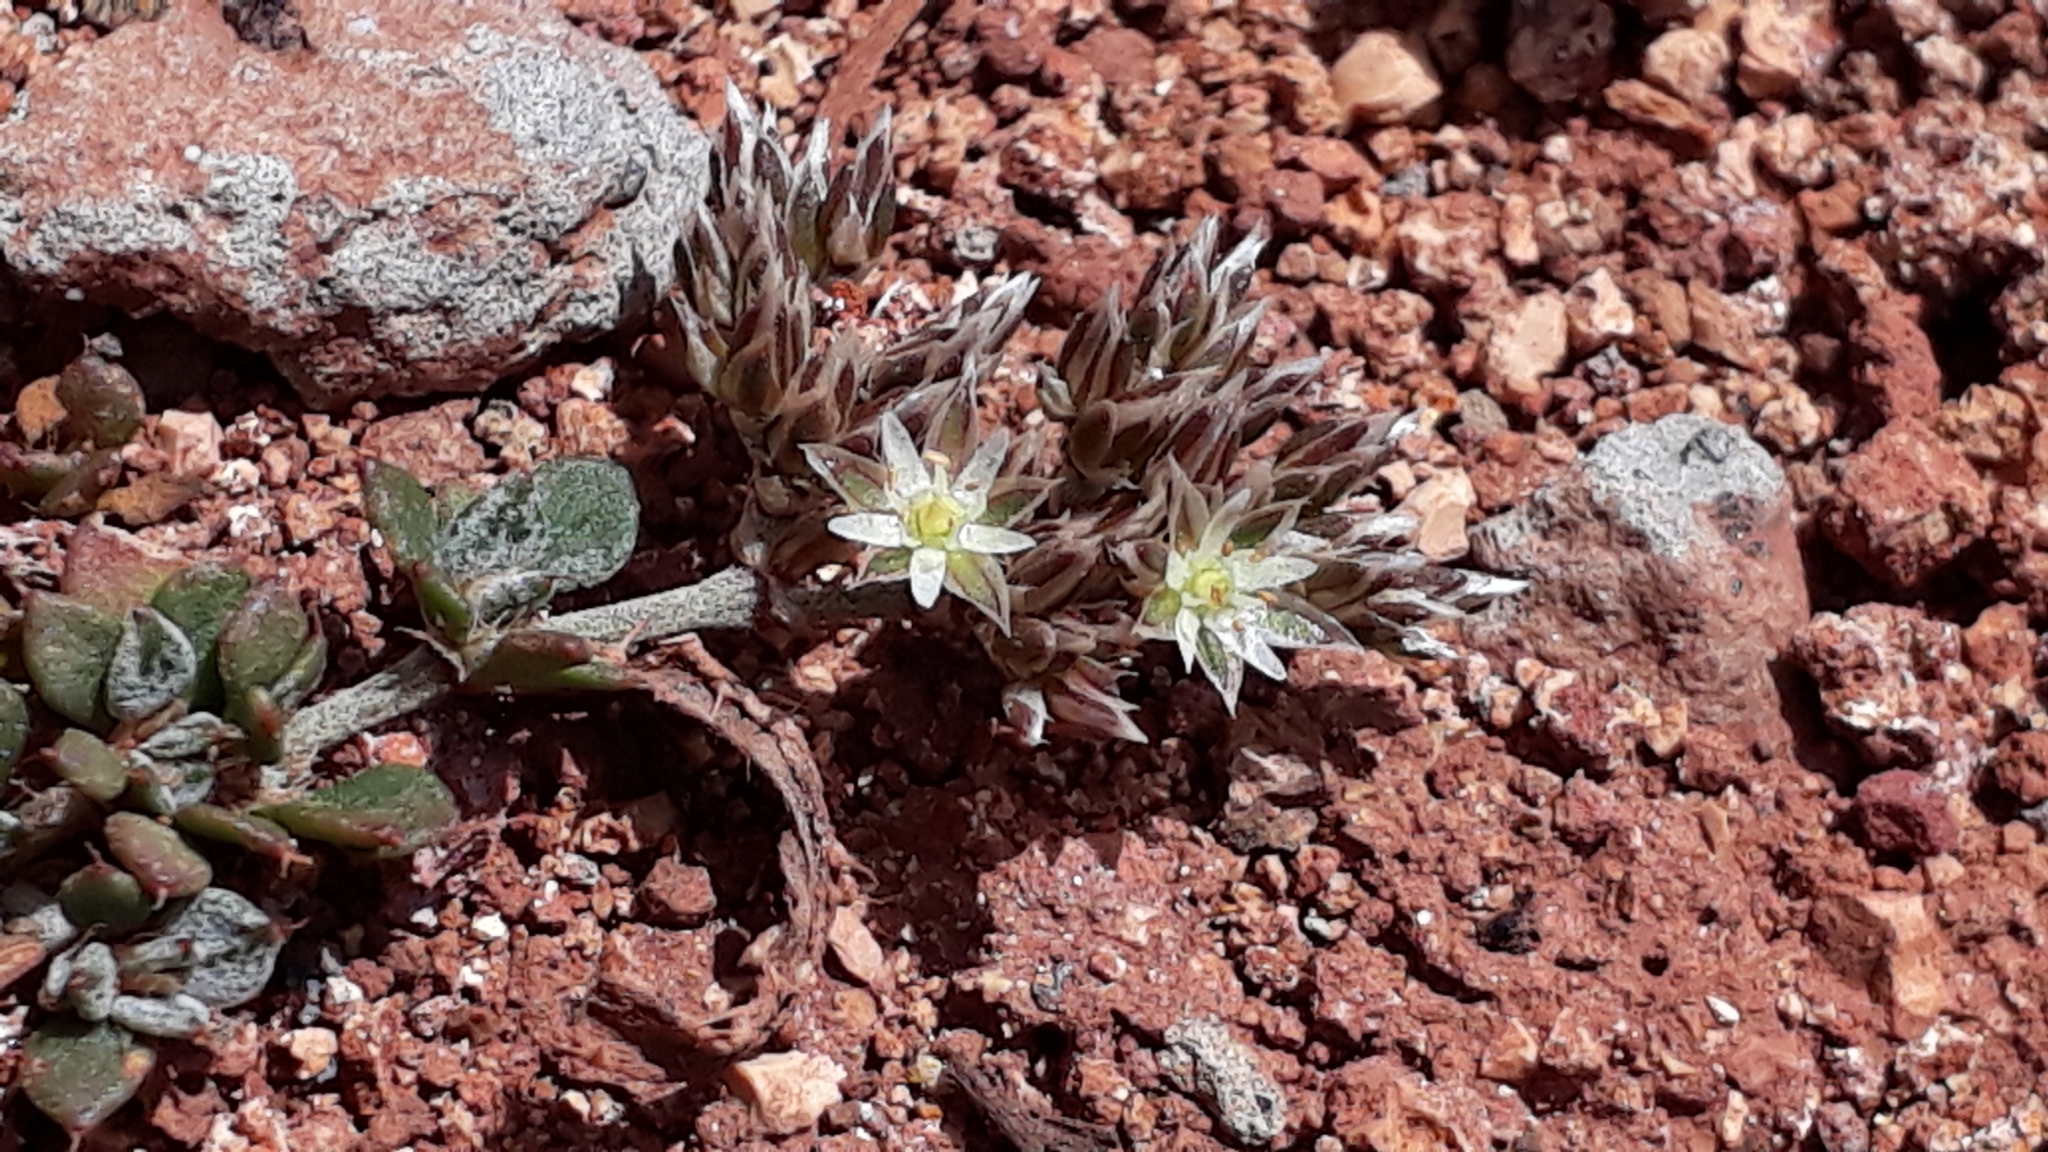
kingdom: Plantae
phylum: Tracheophyta
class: Magnoliopsida
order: Caryophyllales
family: Caryophyllaceae
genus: Polycarpaea
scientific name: Polycarpaea divaricata
